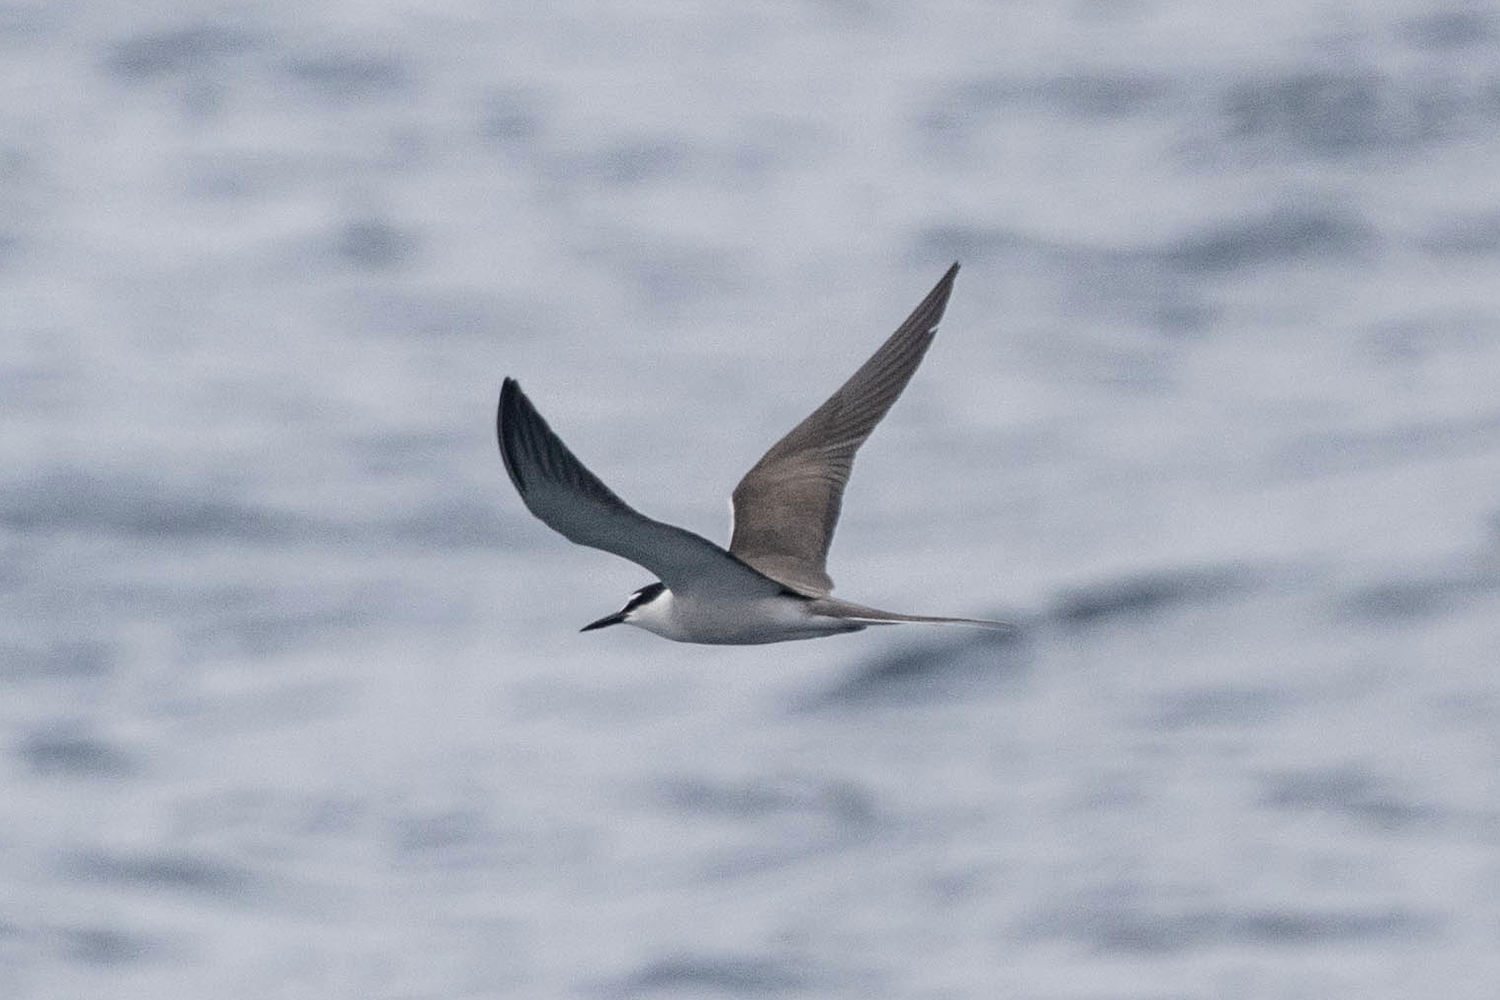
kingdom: Animalia
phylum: Chordata
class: Aves
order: Charadriiformes
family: Laridae
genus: Onychoprion
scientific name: Onychoprion anaethetus
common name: Bridled tern
